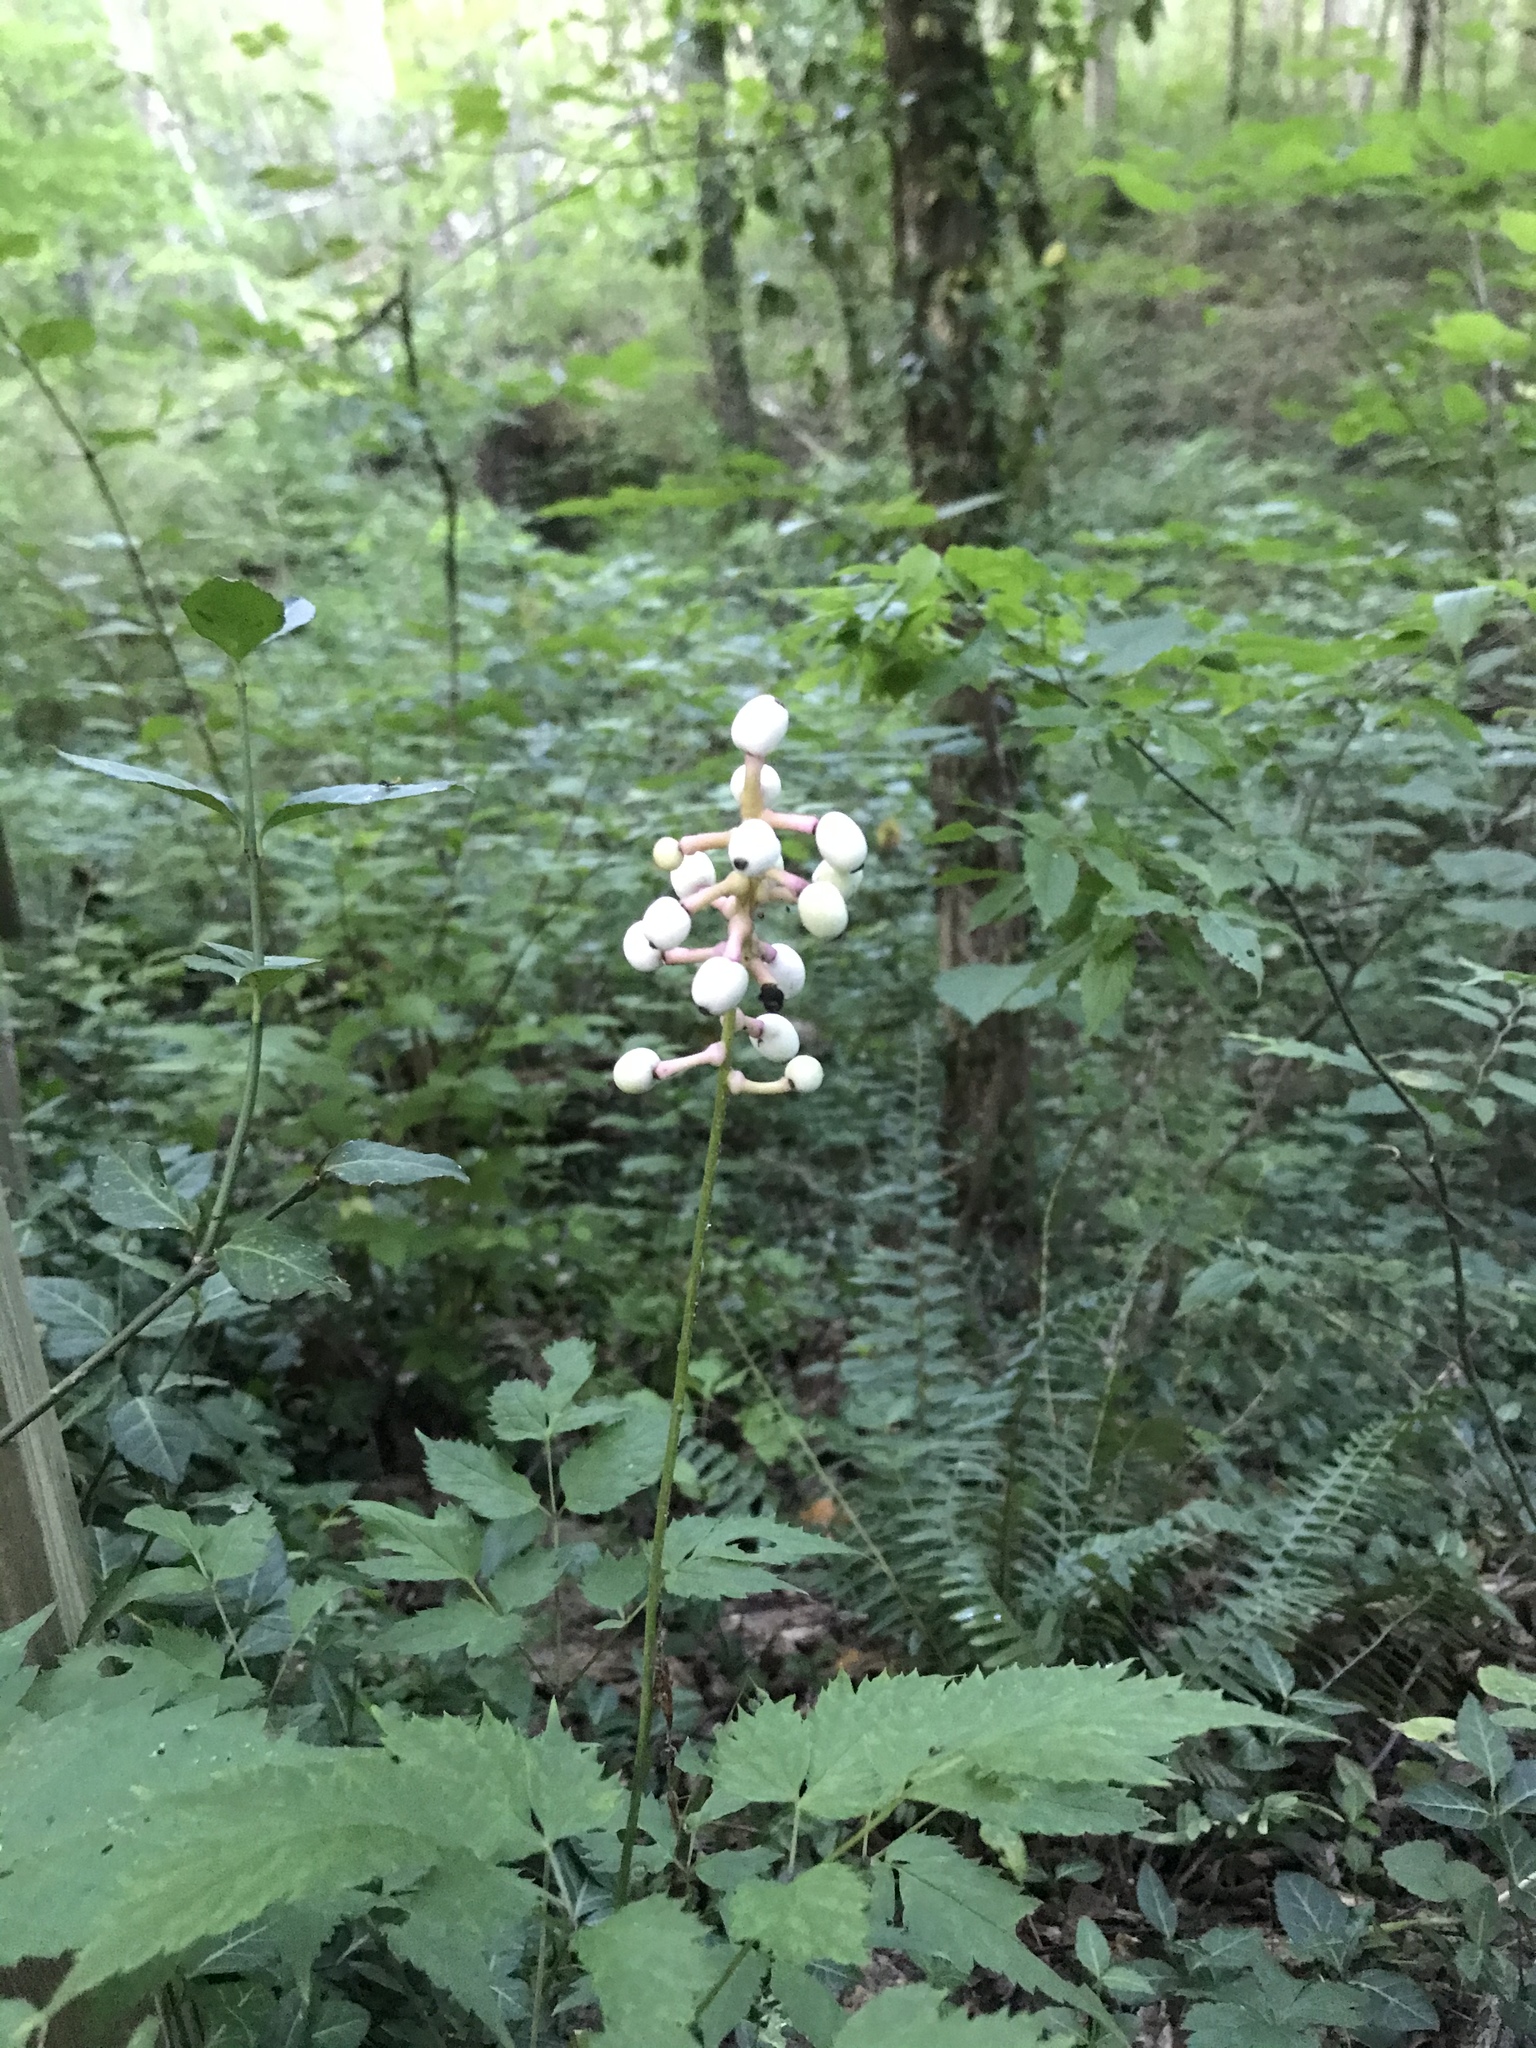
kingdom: Plantae
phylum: Tracheophyta
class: Magnoliopsida
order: Ranunculales
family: Ranunculaceae
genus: Actaea
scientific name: Actaea pachypoda
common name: Doll's-eyes
